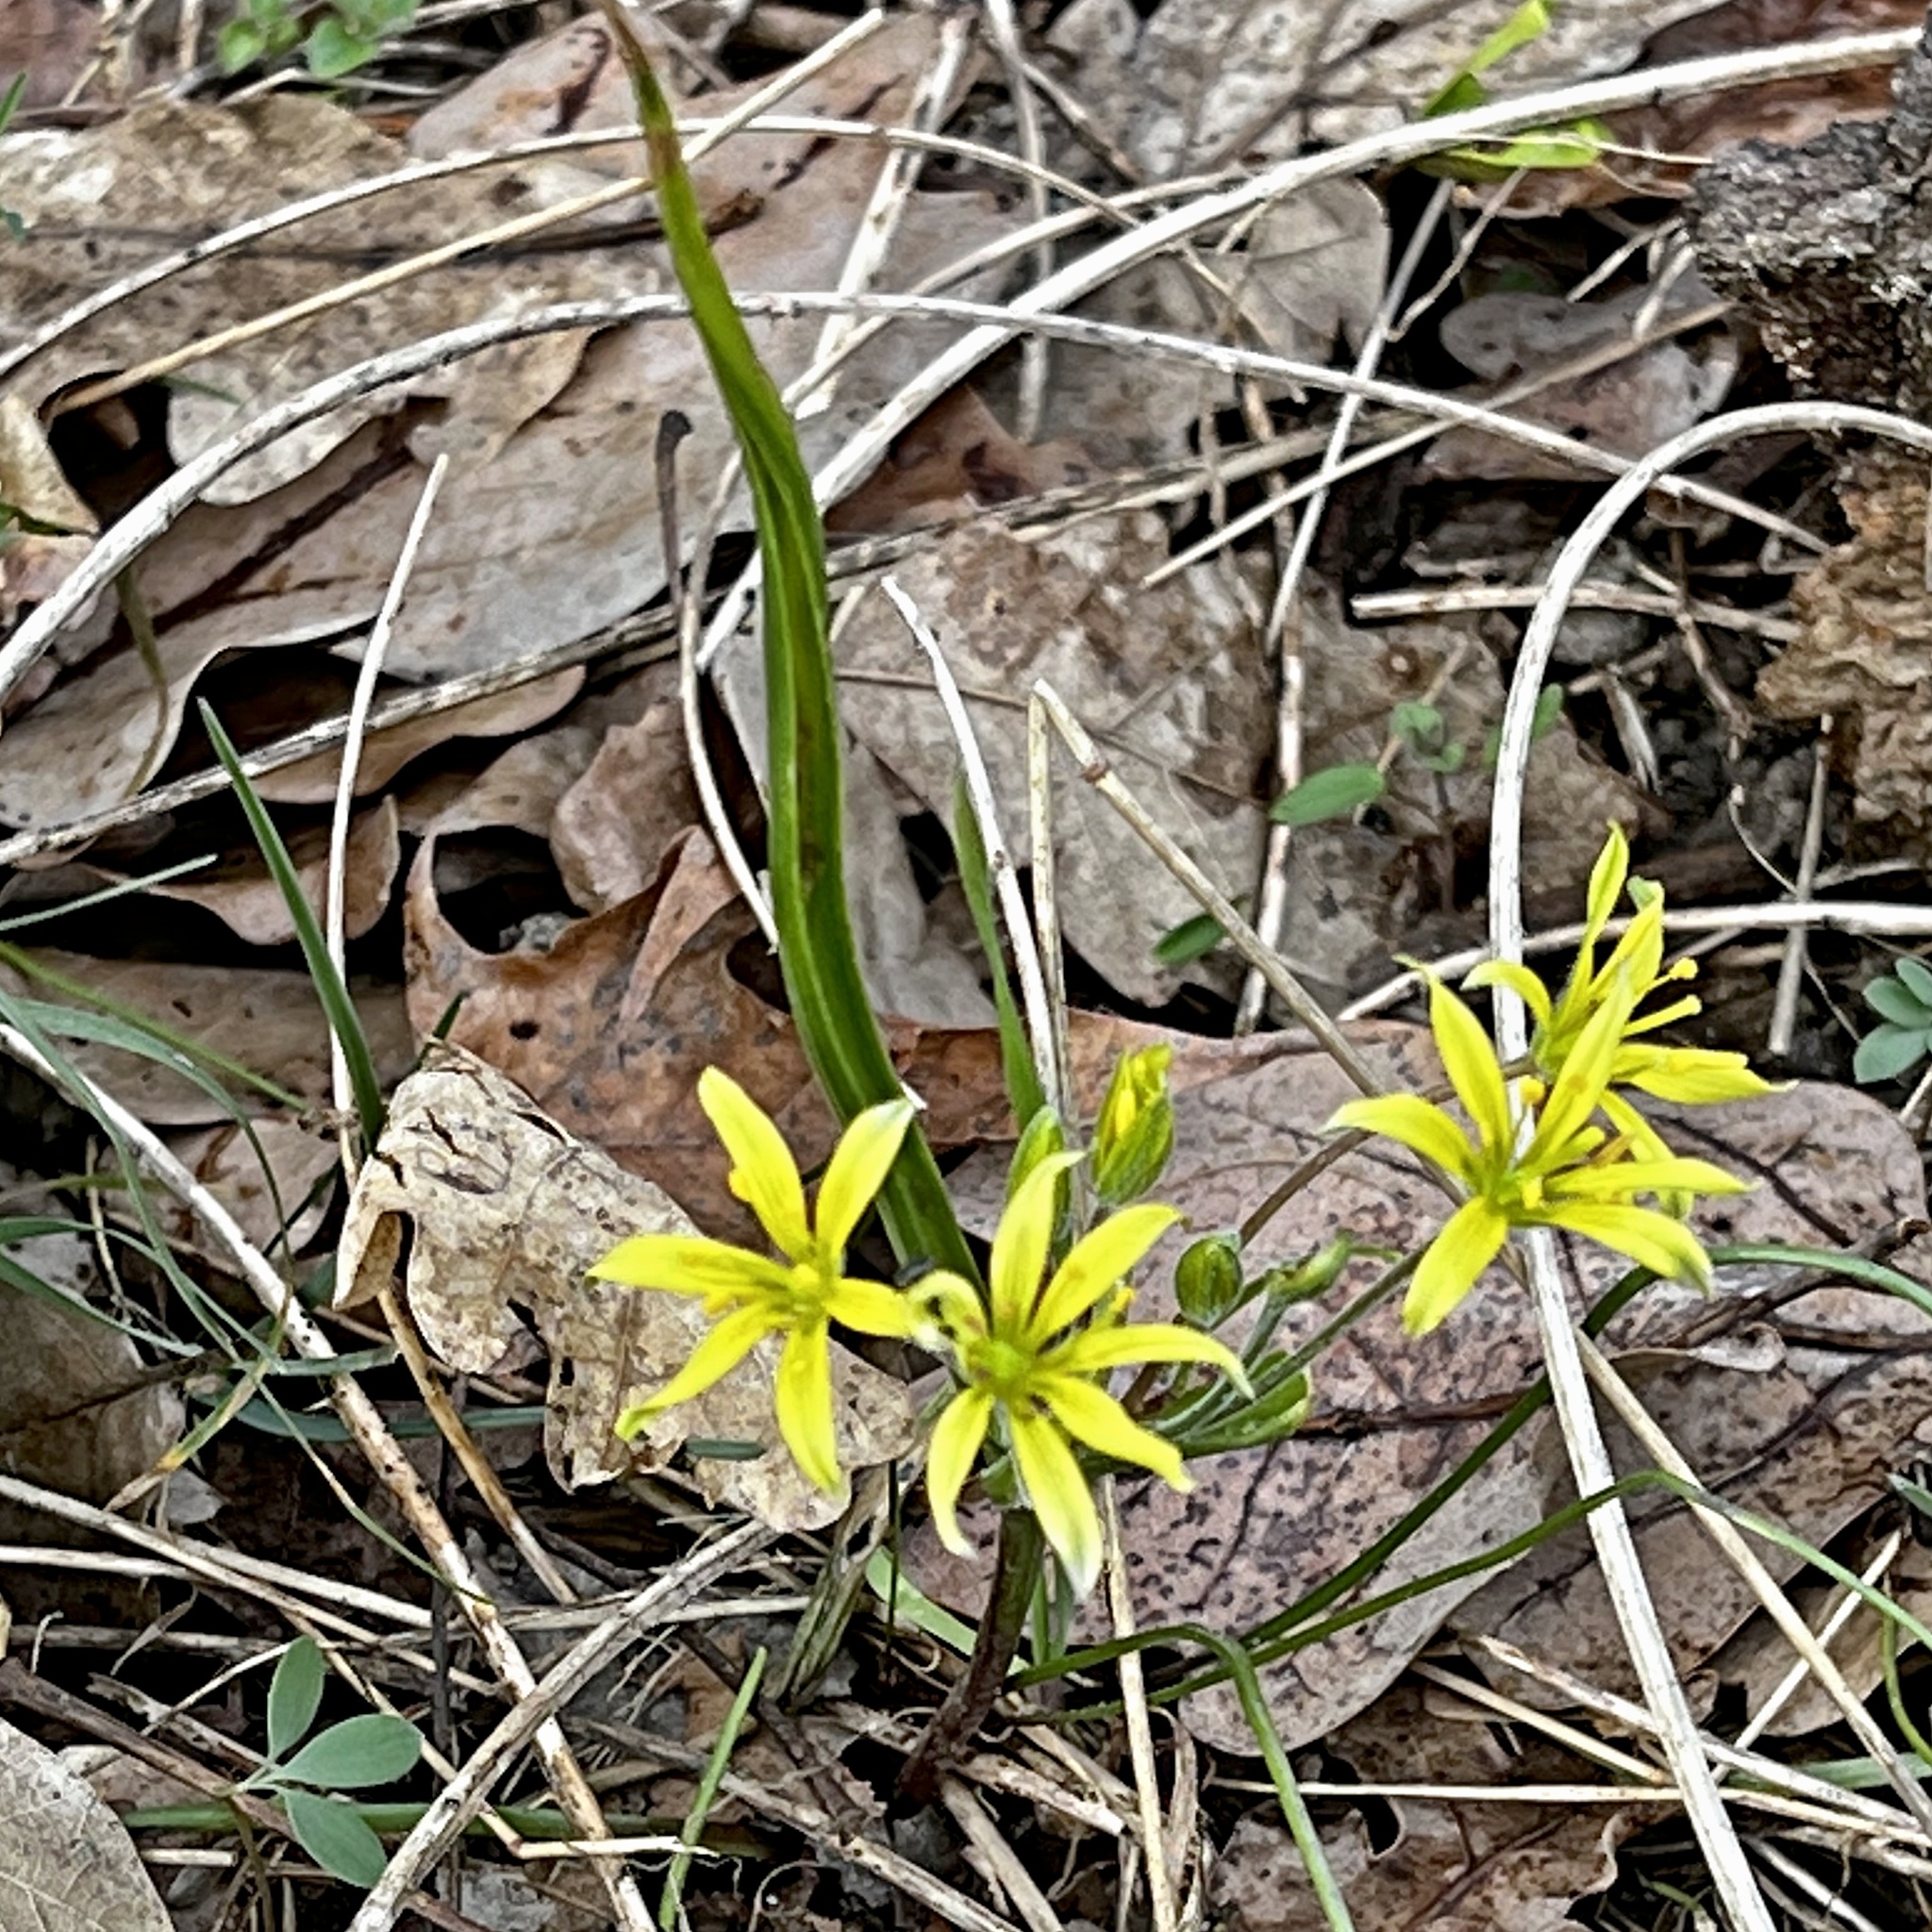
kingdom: Plantae
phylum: Tracheophyta
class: Liliopsida
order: Liliales
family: Liliaceae
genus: Gagea
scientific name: Gagea villosa
